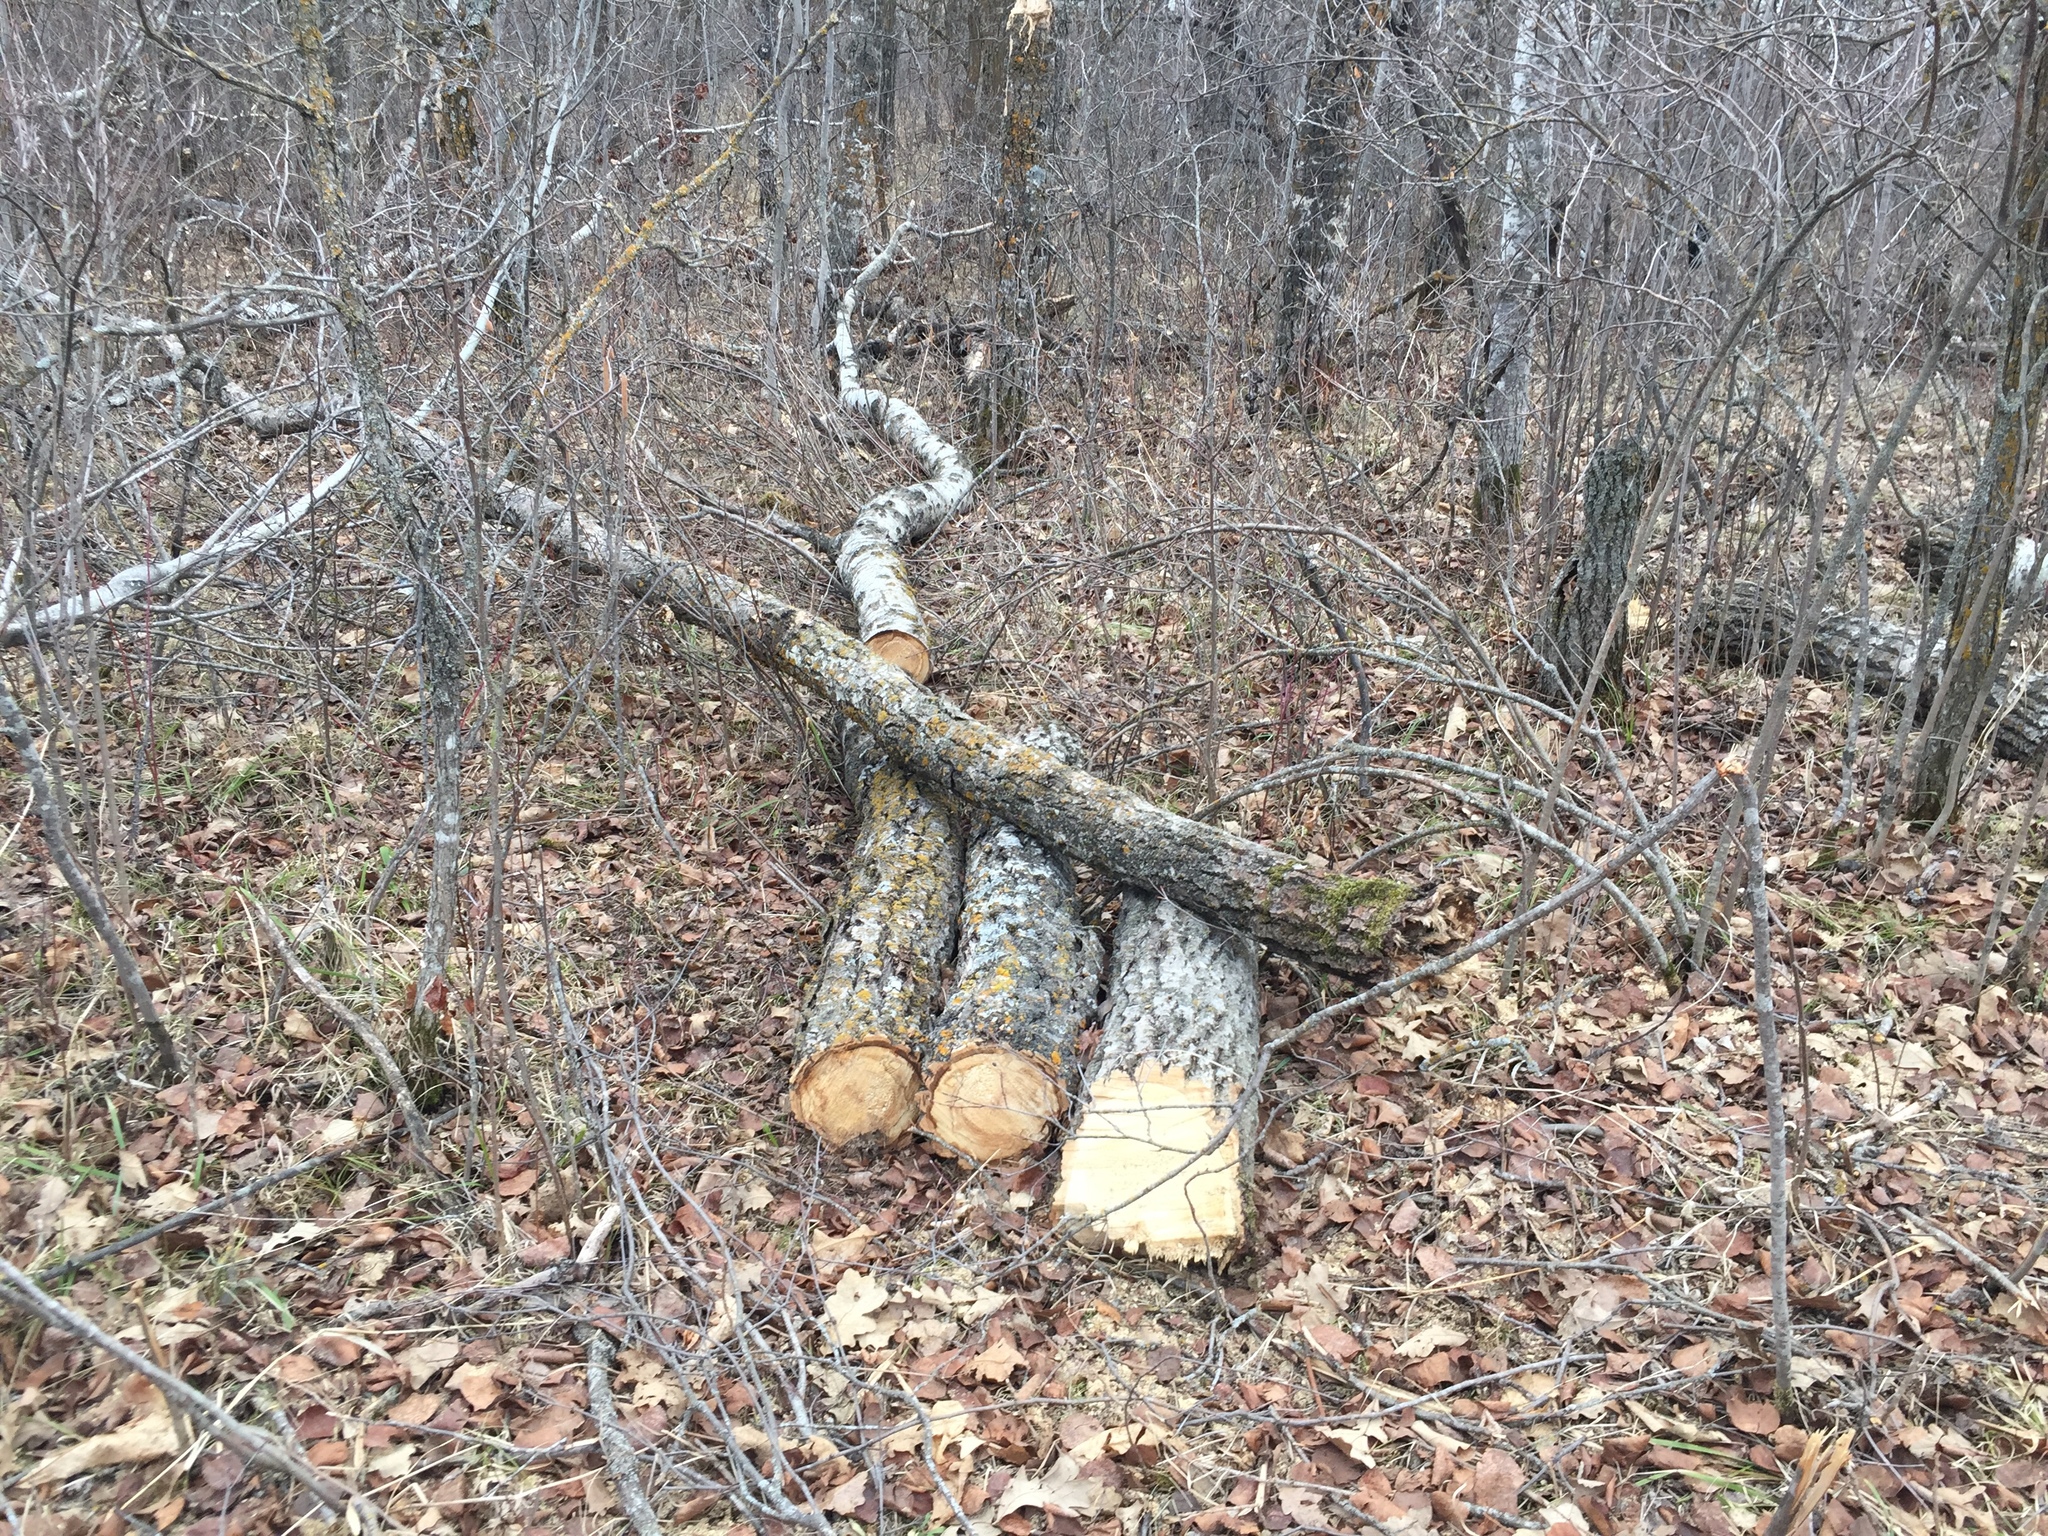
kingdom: Plantae
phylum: Tracheophyta
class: Magnoliopsida
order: Malpighiales
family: Salicaceae
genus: Populus
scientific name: Populus tremuloides
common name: Quaking aspen
